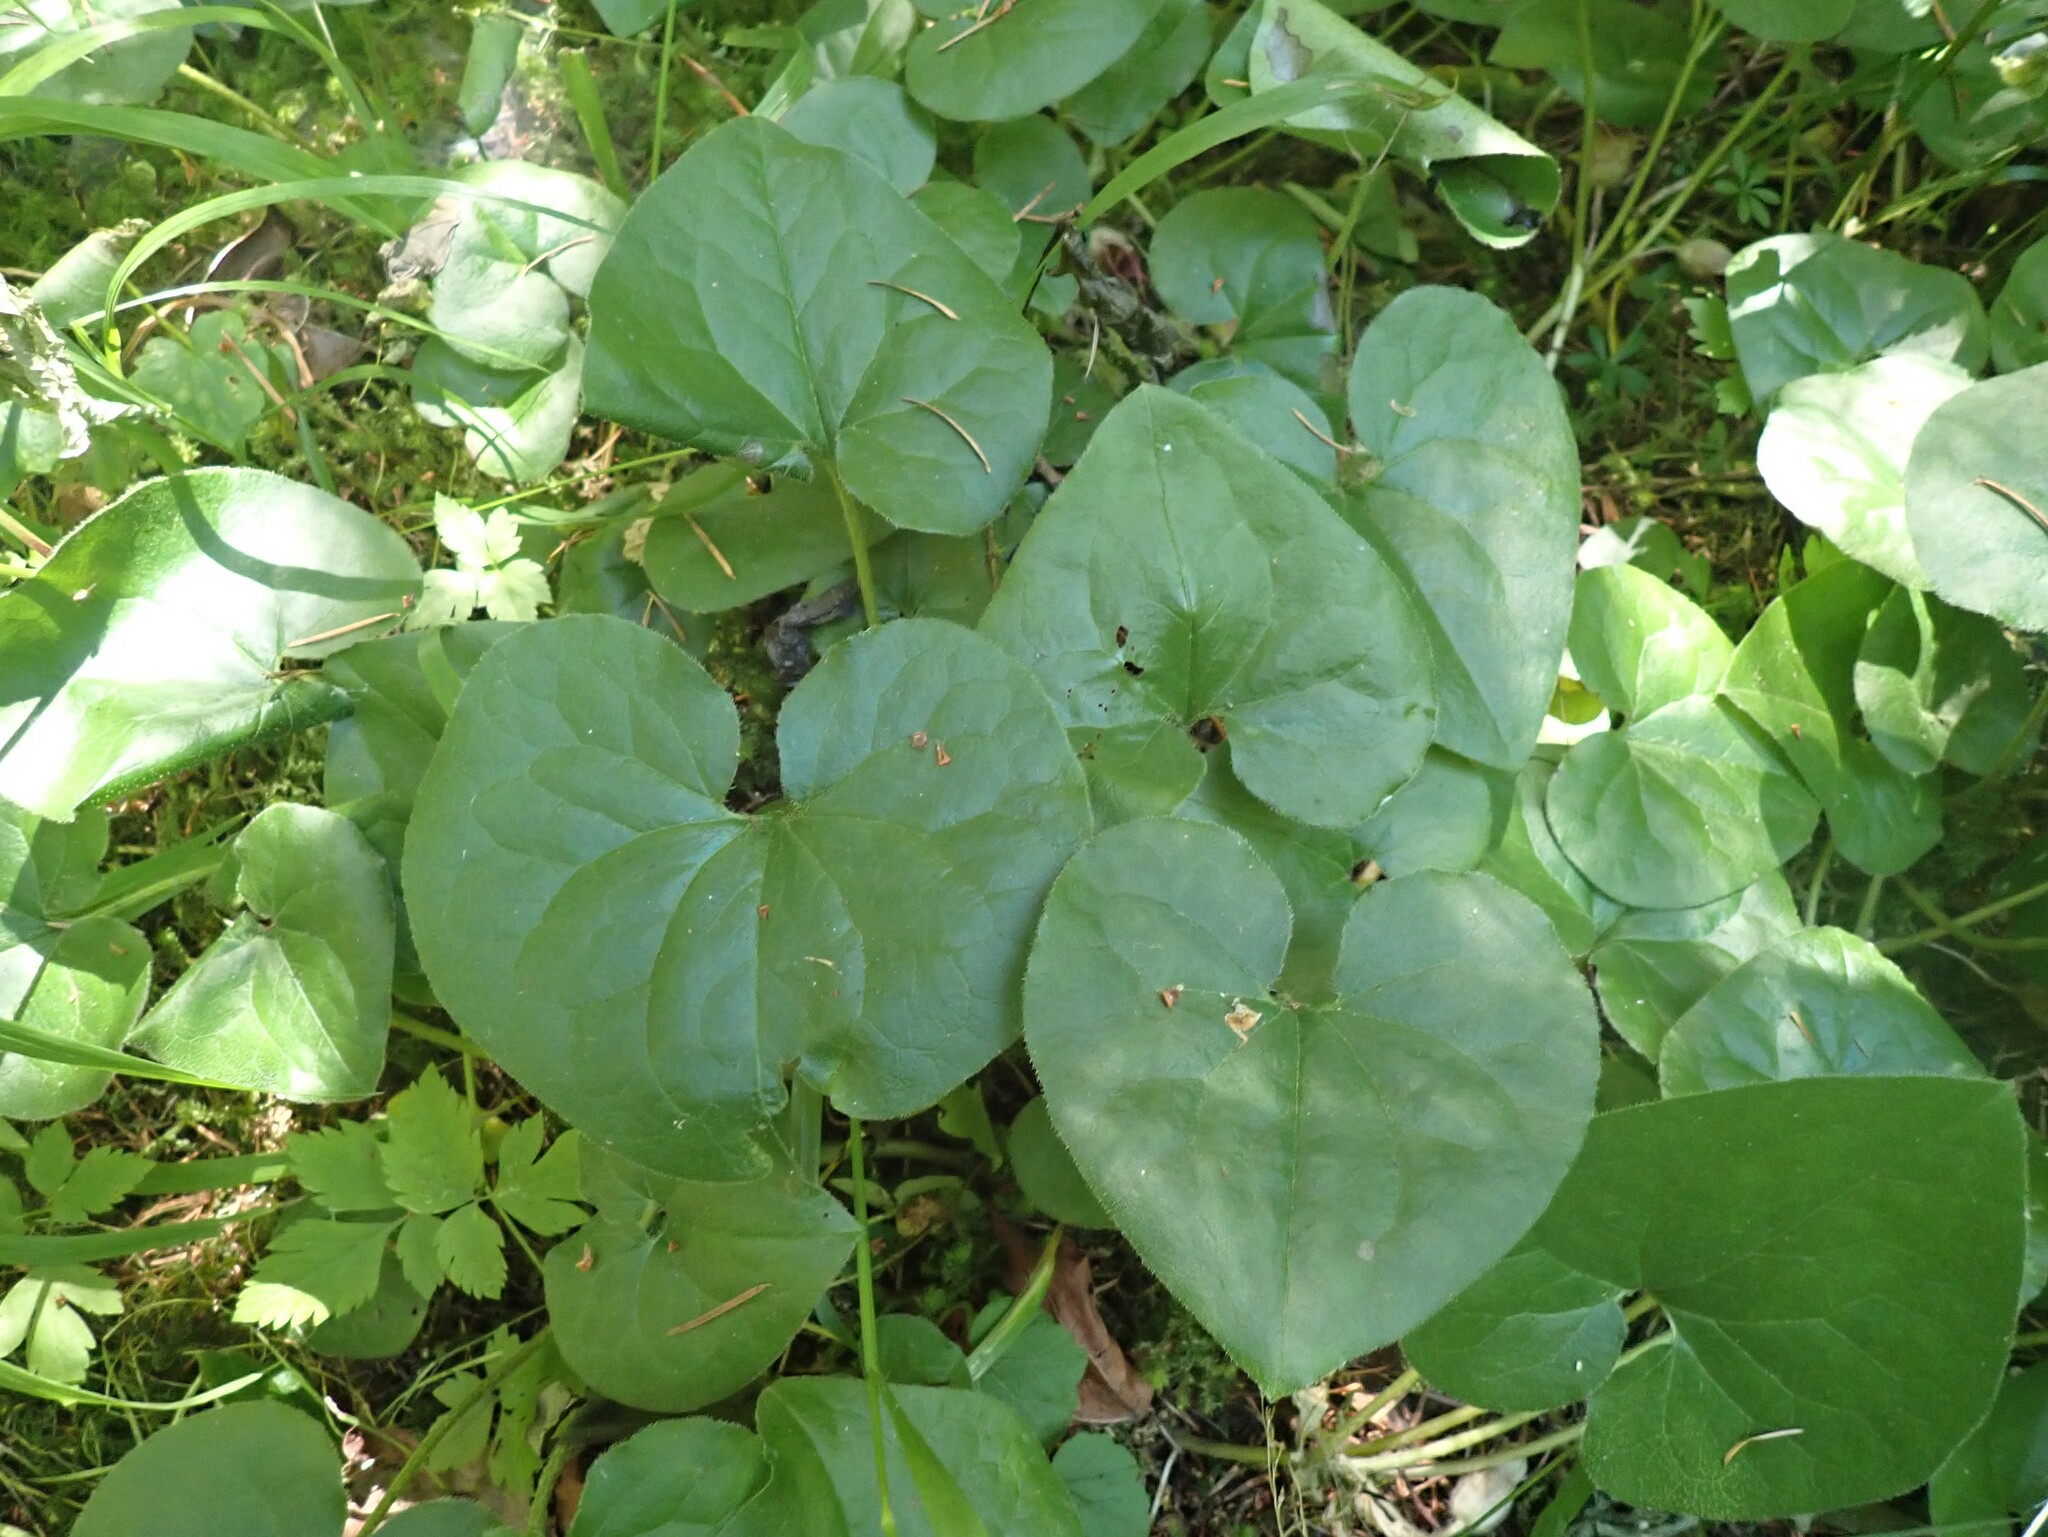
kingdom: Plantae
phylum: Tracheophyta
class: Magnoliopsida
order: Piperales
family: Aristolochiaceae
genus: Asarum
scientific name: Asarum caudatum
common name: Wild ginger
